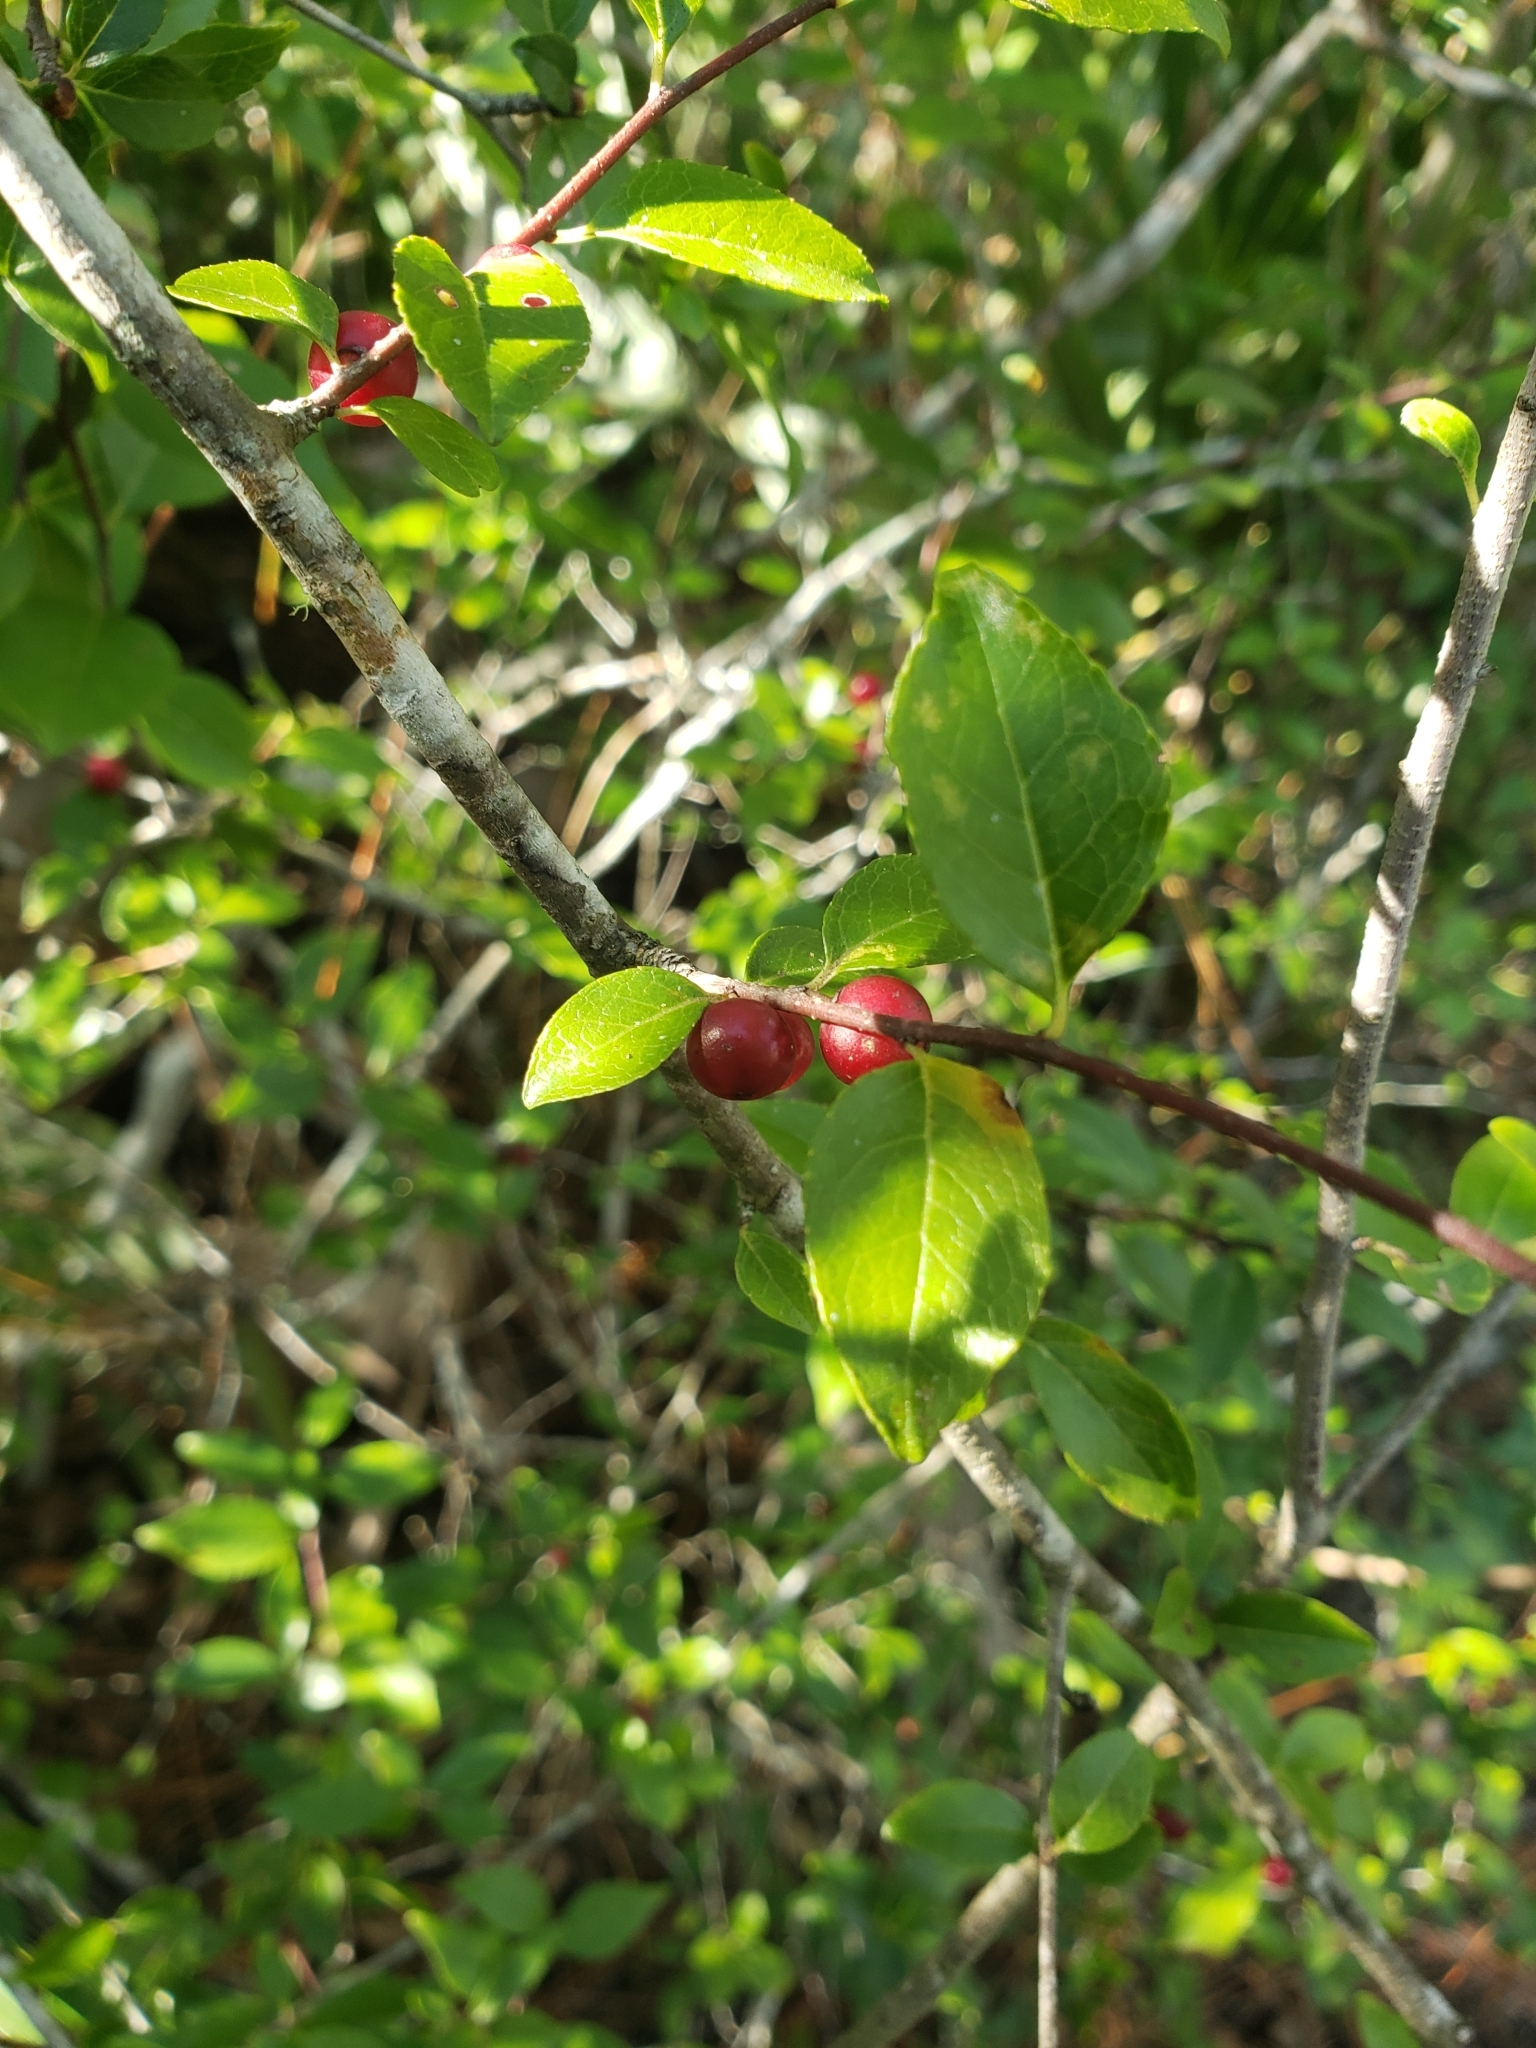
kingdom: Plantae
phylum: Tracheophyta
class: Magnoliopsida
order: Aquifoliales
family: Aquifoliaceae
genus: Ilex
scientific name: Ilex ambigua
